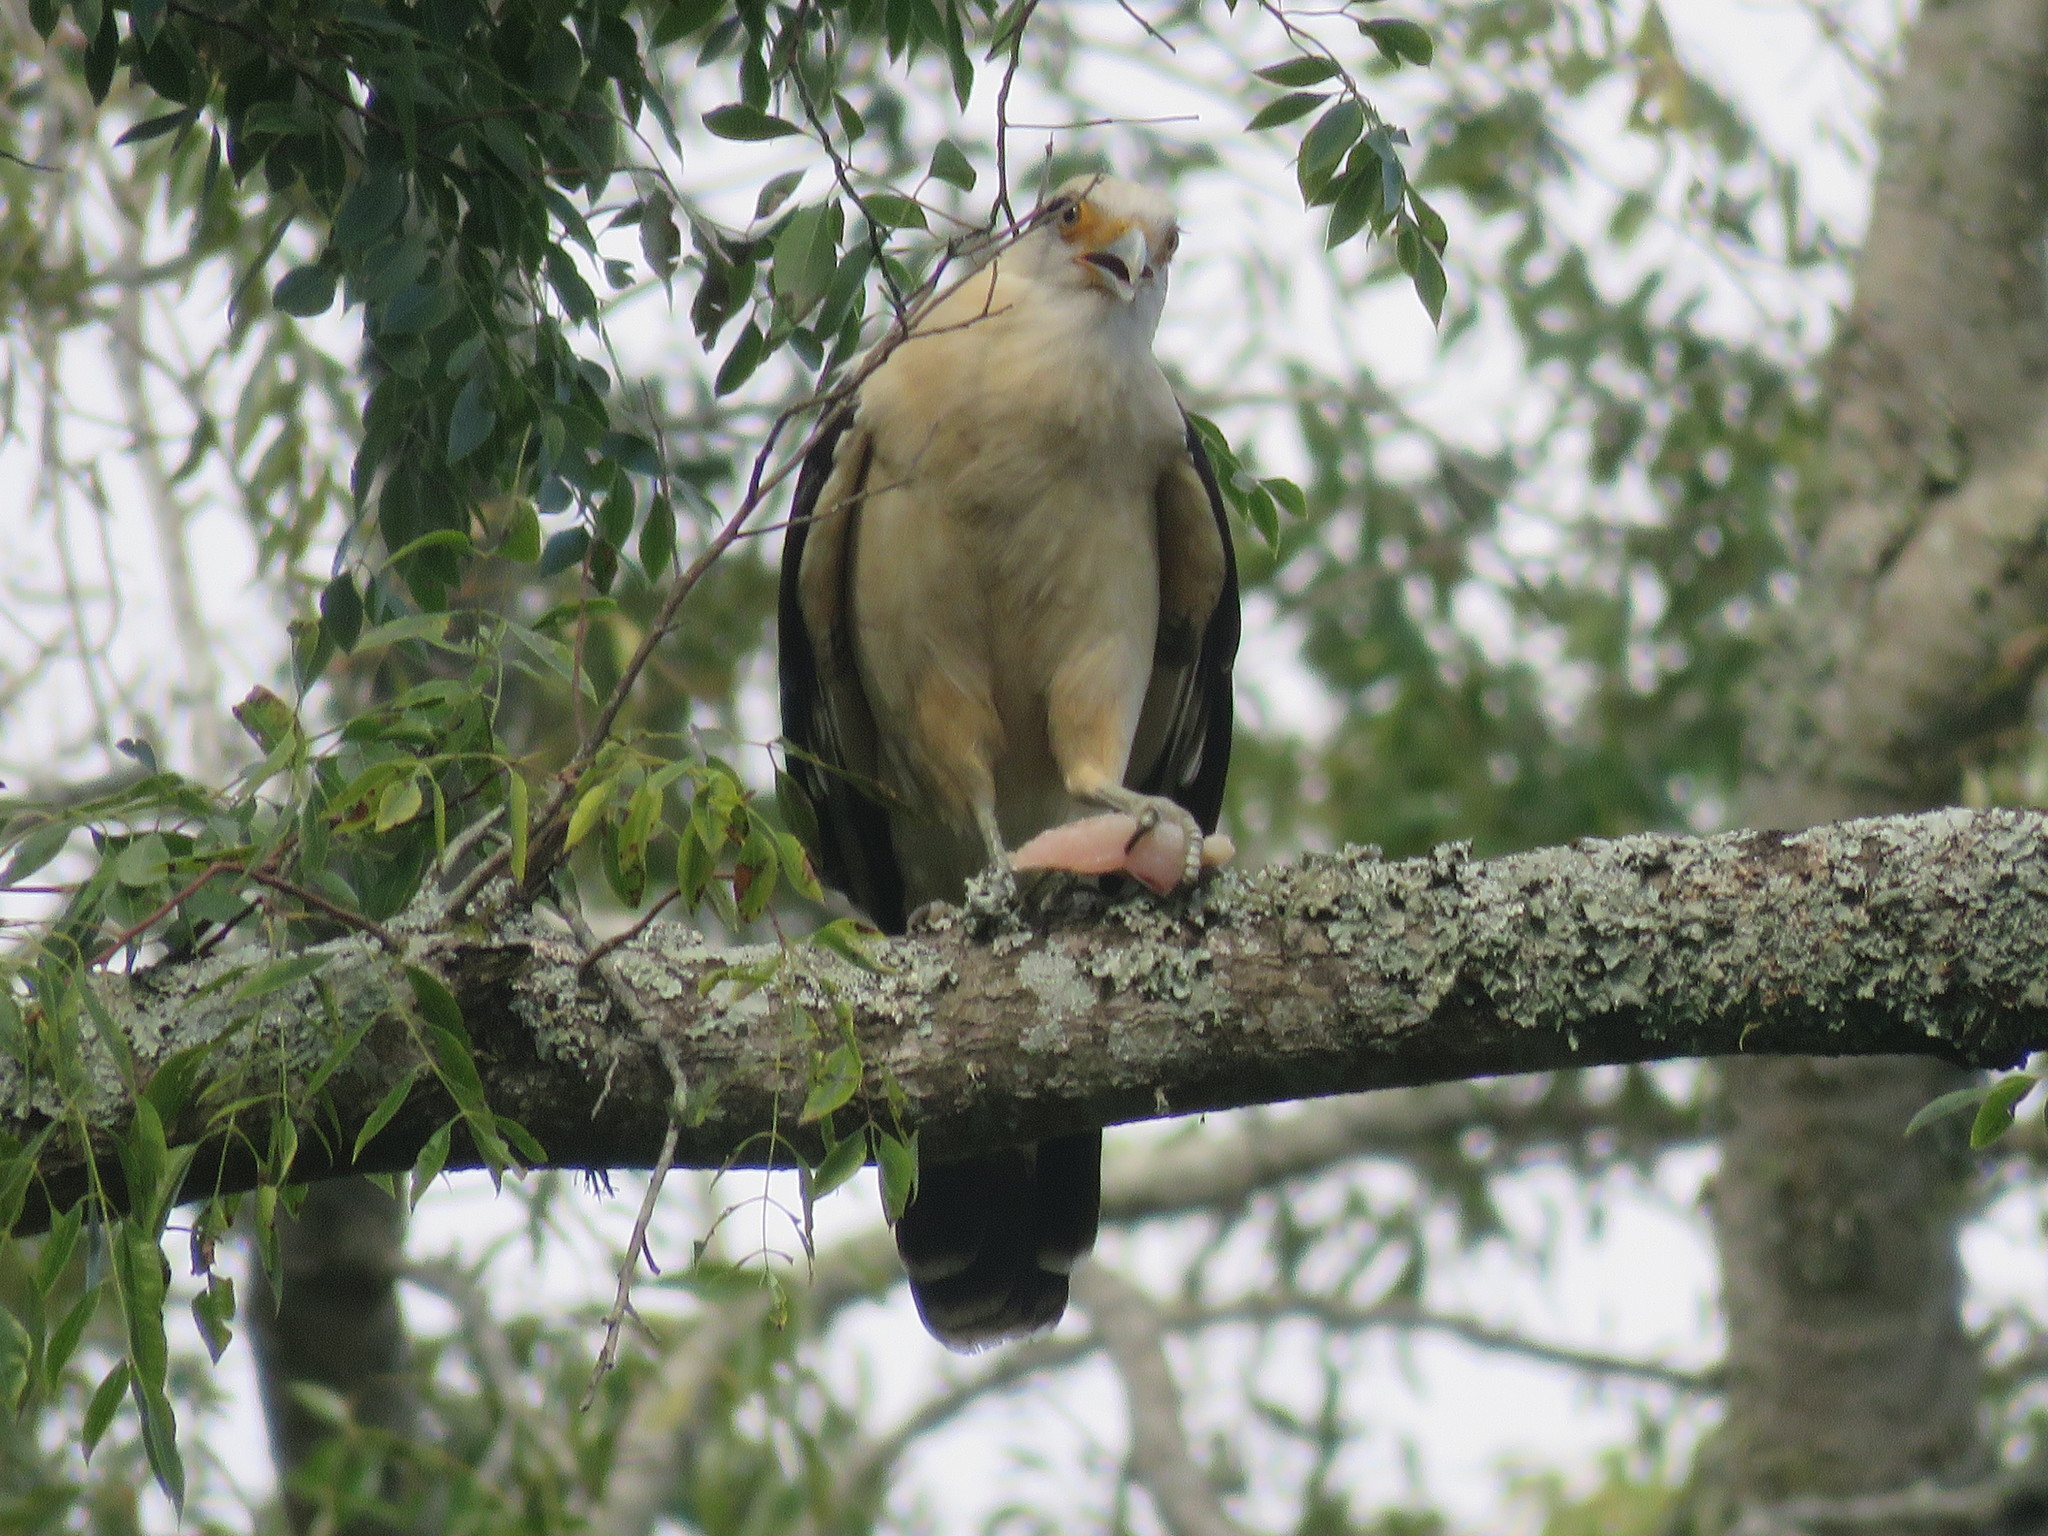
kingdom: Animalia
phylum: Chordata
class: Aves
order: Falconiformes
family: Falconidae
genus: Daptrius
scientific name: Daptrius
